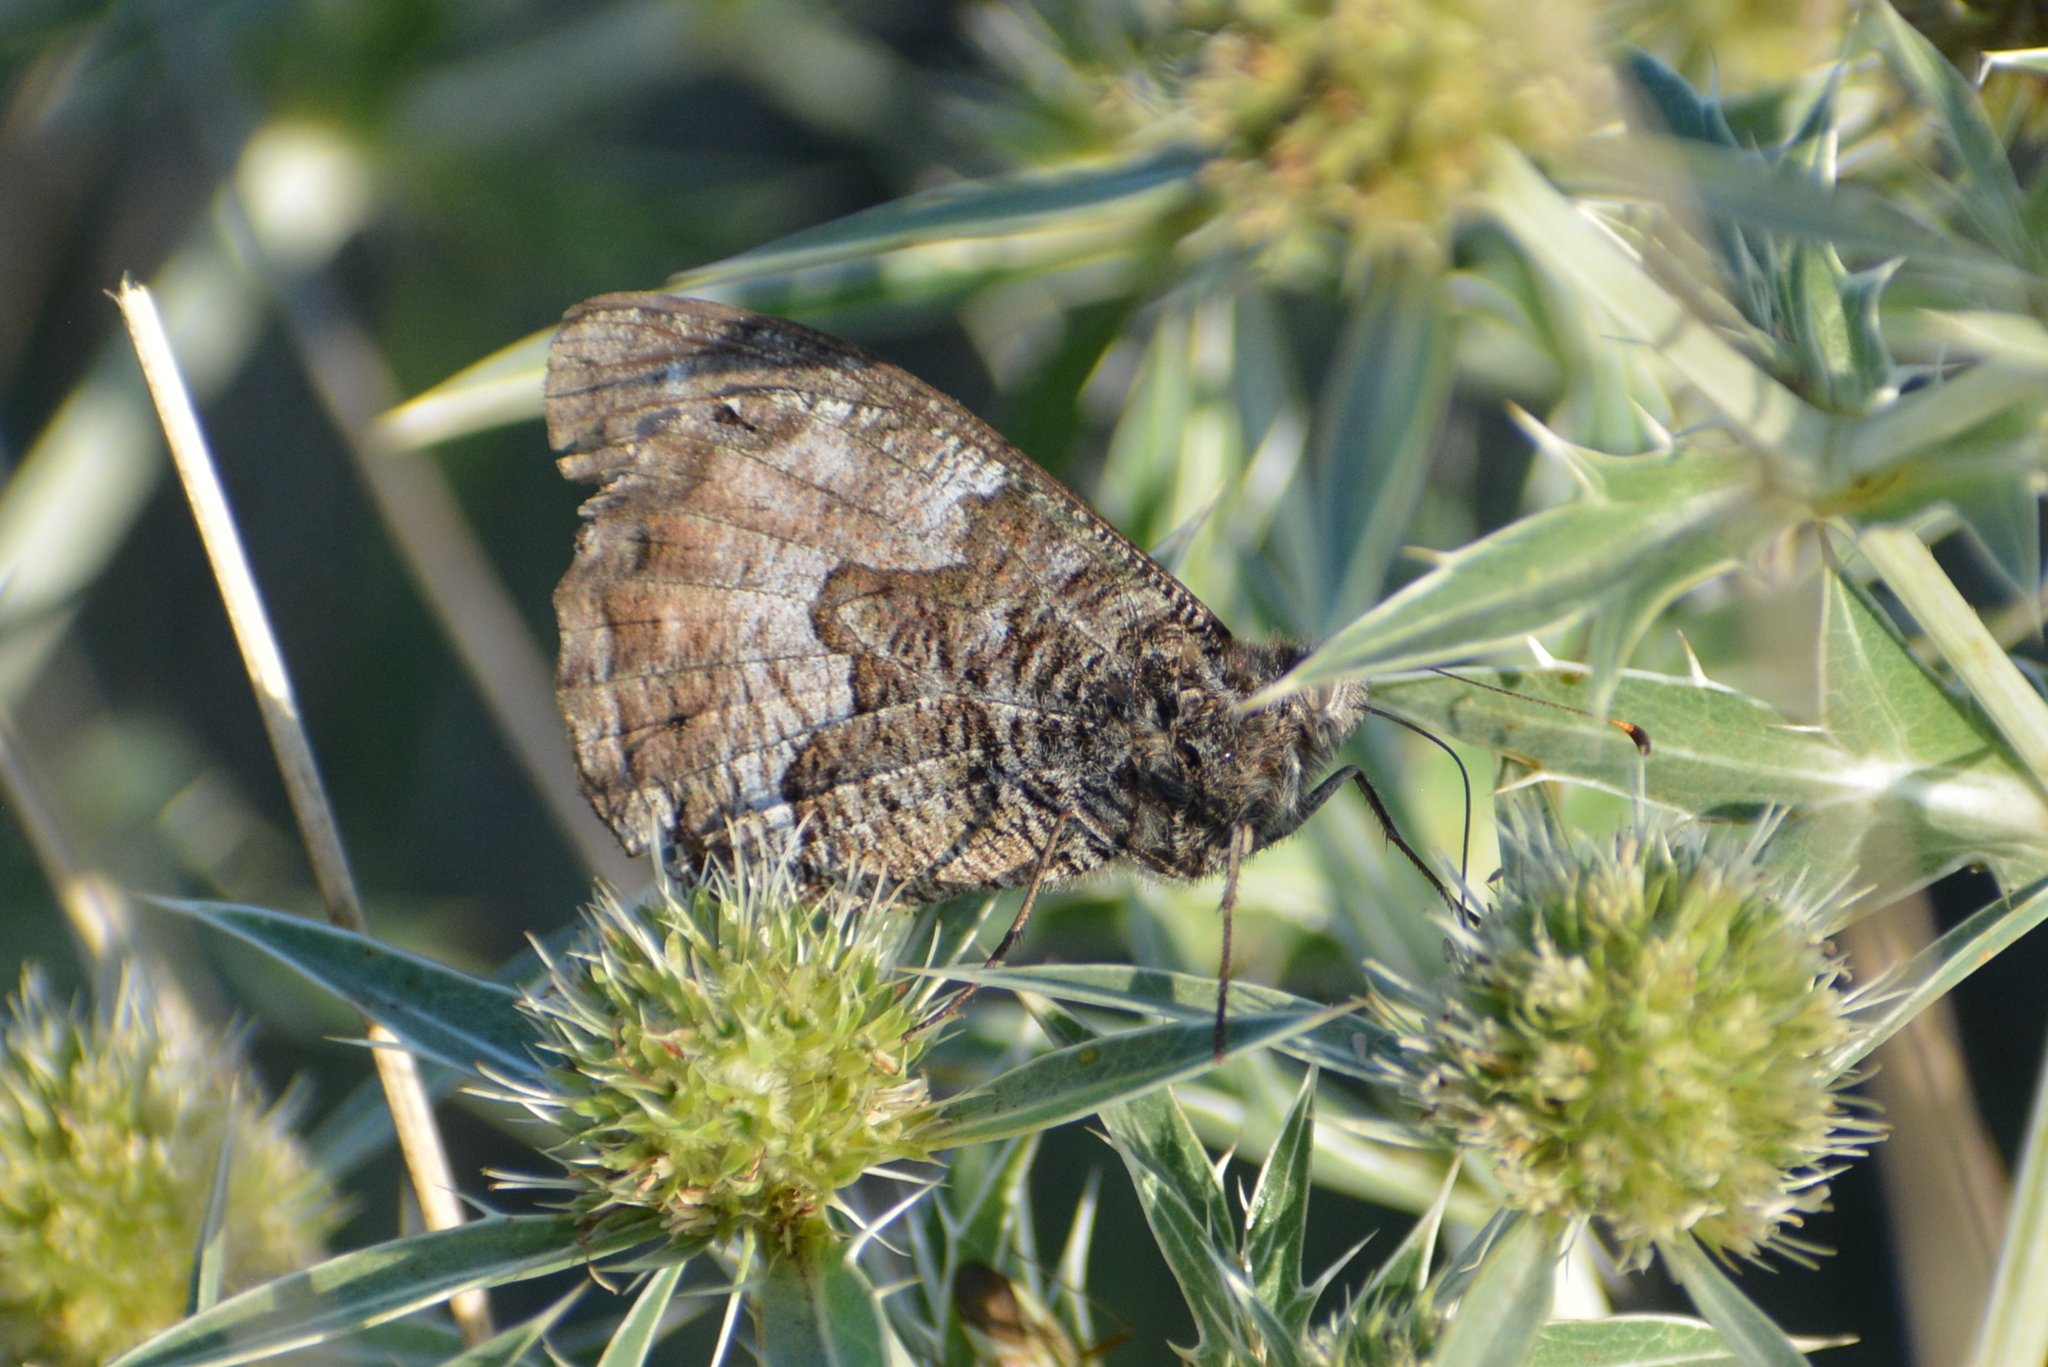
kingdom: Animalia
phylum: Arthropoda
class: Insecta
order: Lepidoptera
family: Nymphalidae
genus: Hipparchia
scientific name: Hipparchia semele
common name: Grayling
